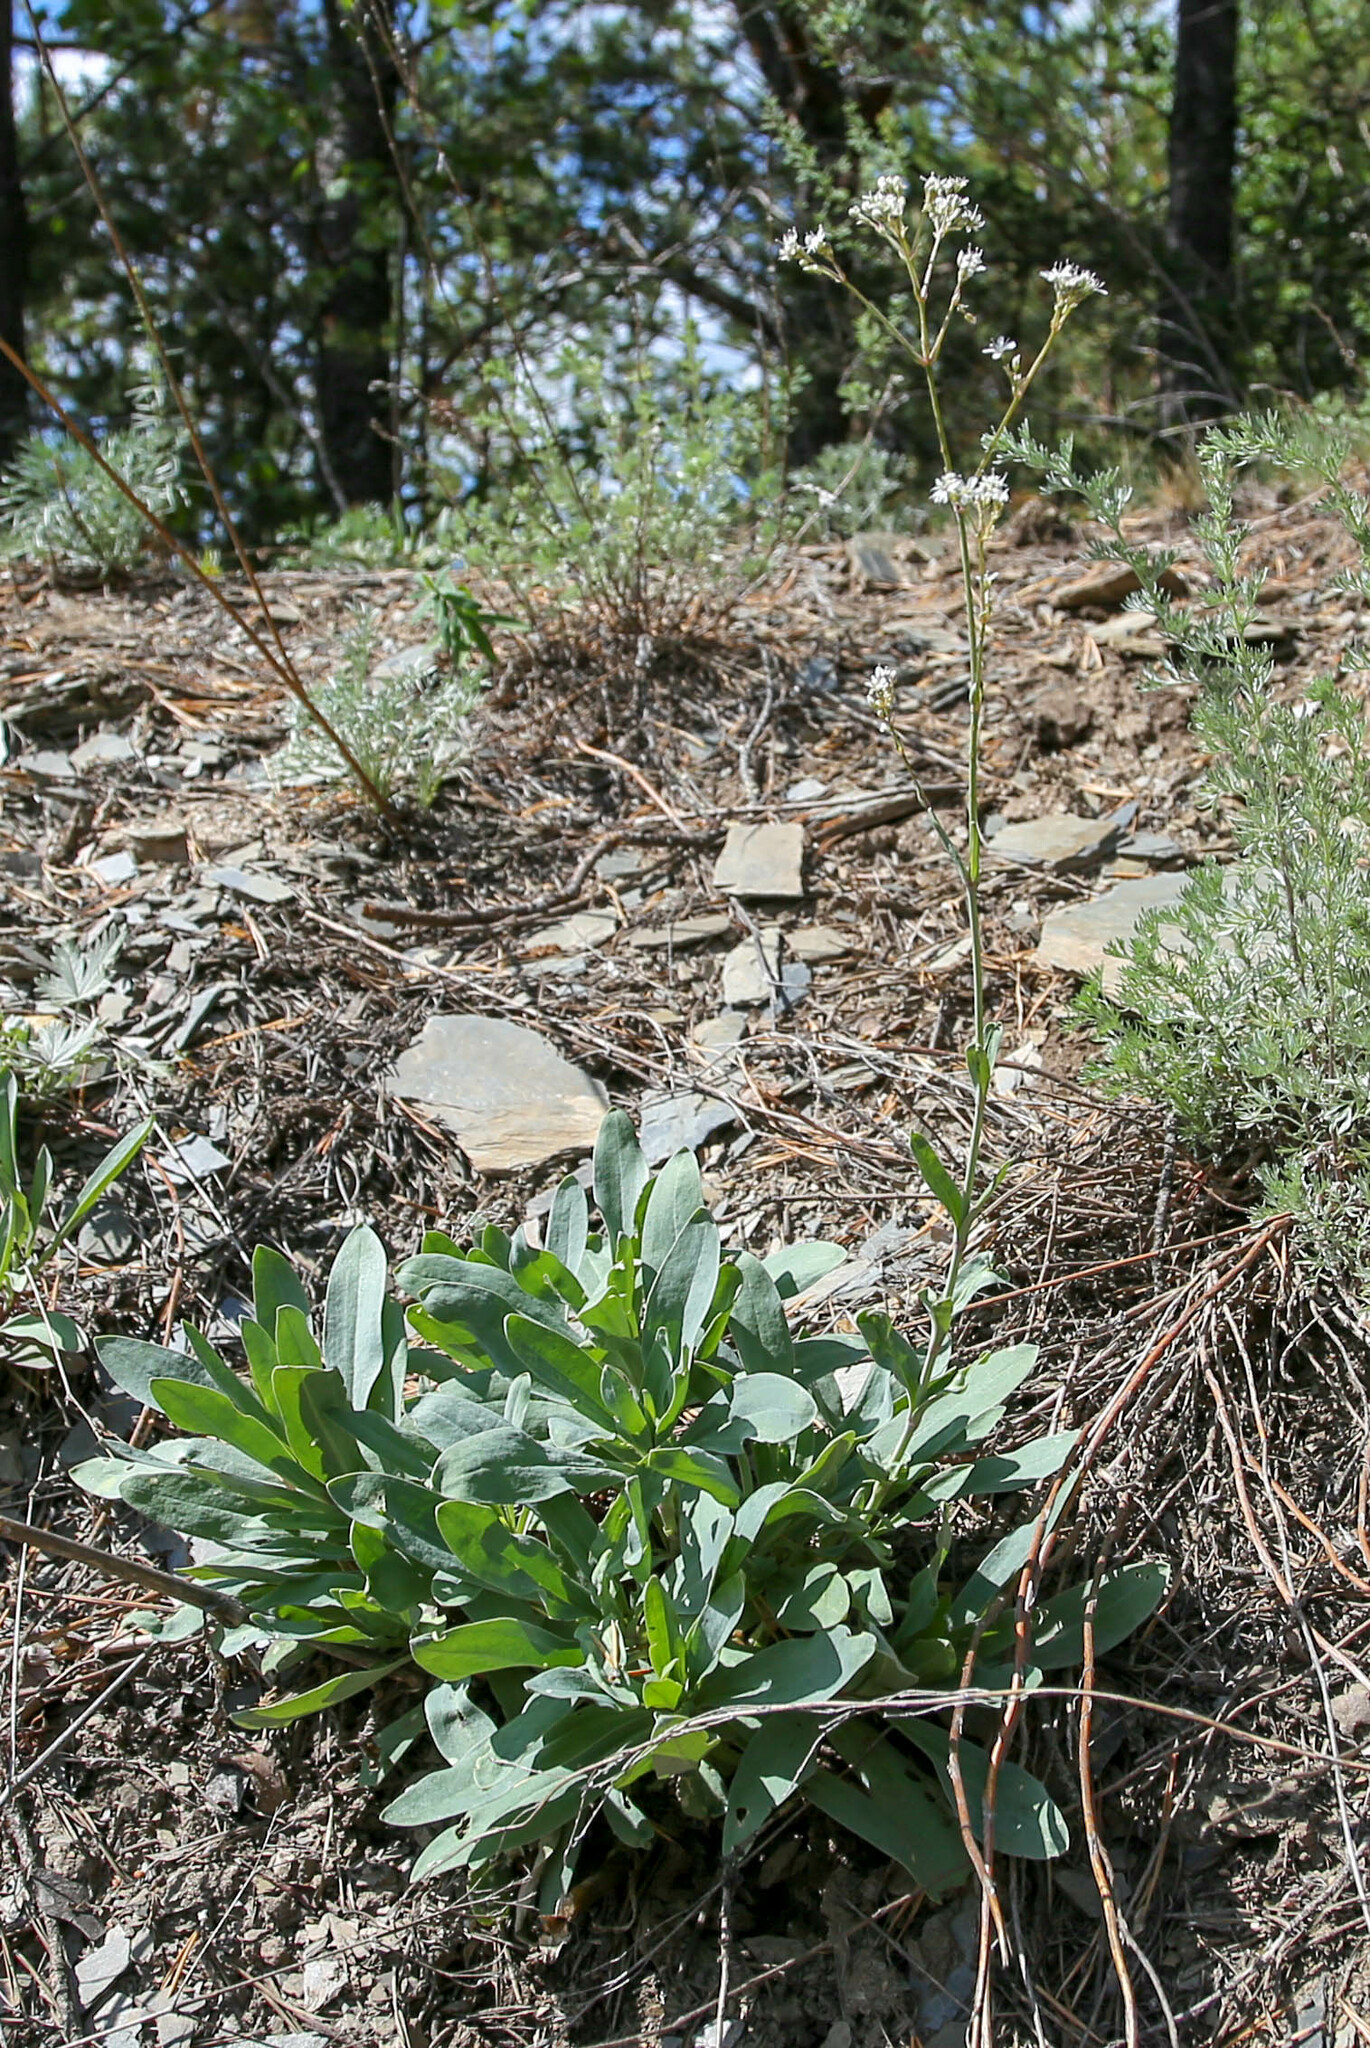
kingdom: Plantae
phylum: Tracheophyta
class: Magnoliopsida
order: Caryophyllales
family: Caryophyllaceae
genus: Gypsophila
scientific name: Gypsophila altissima
